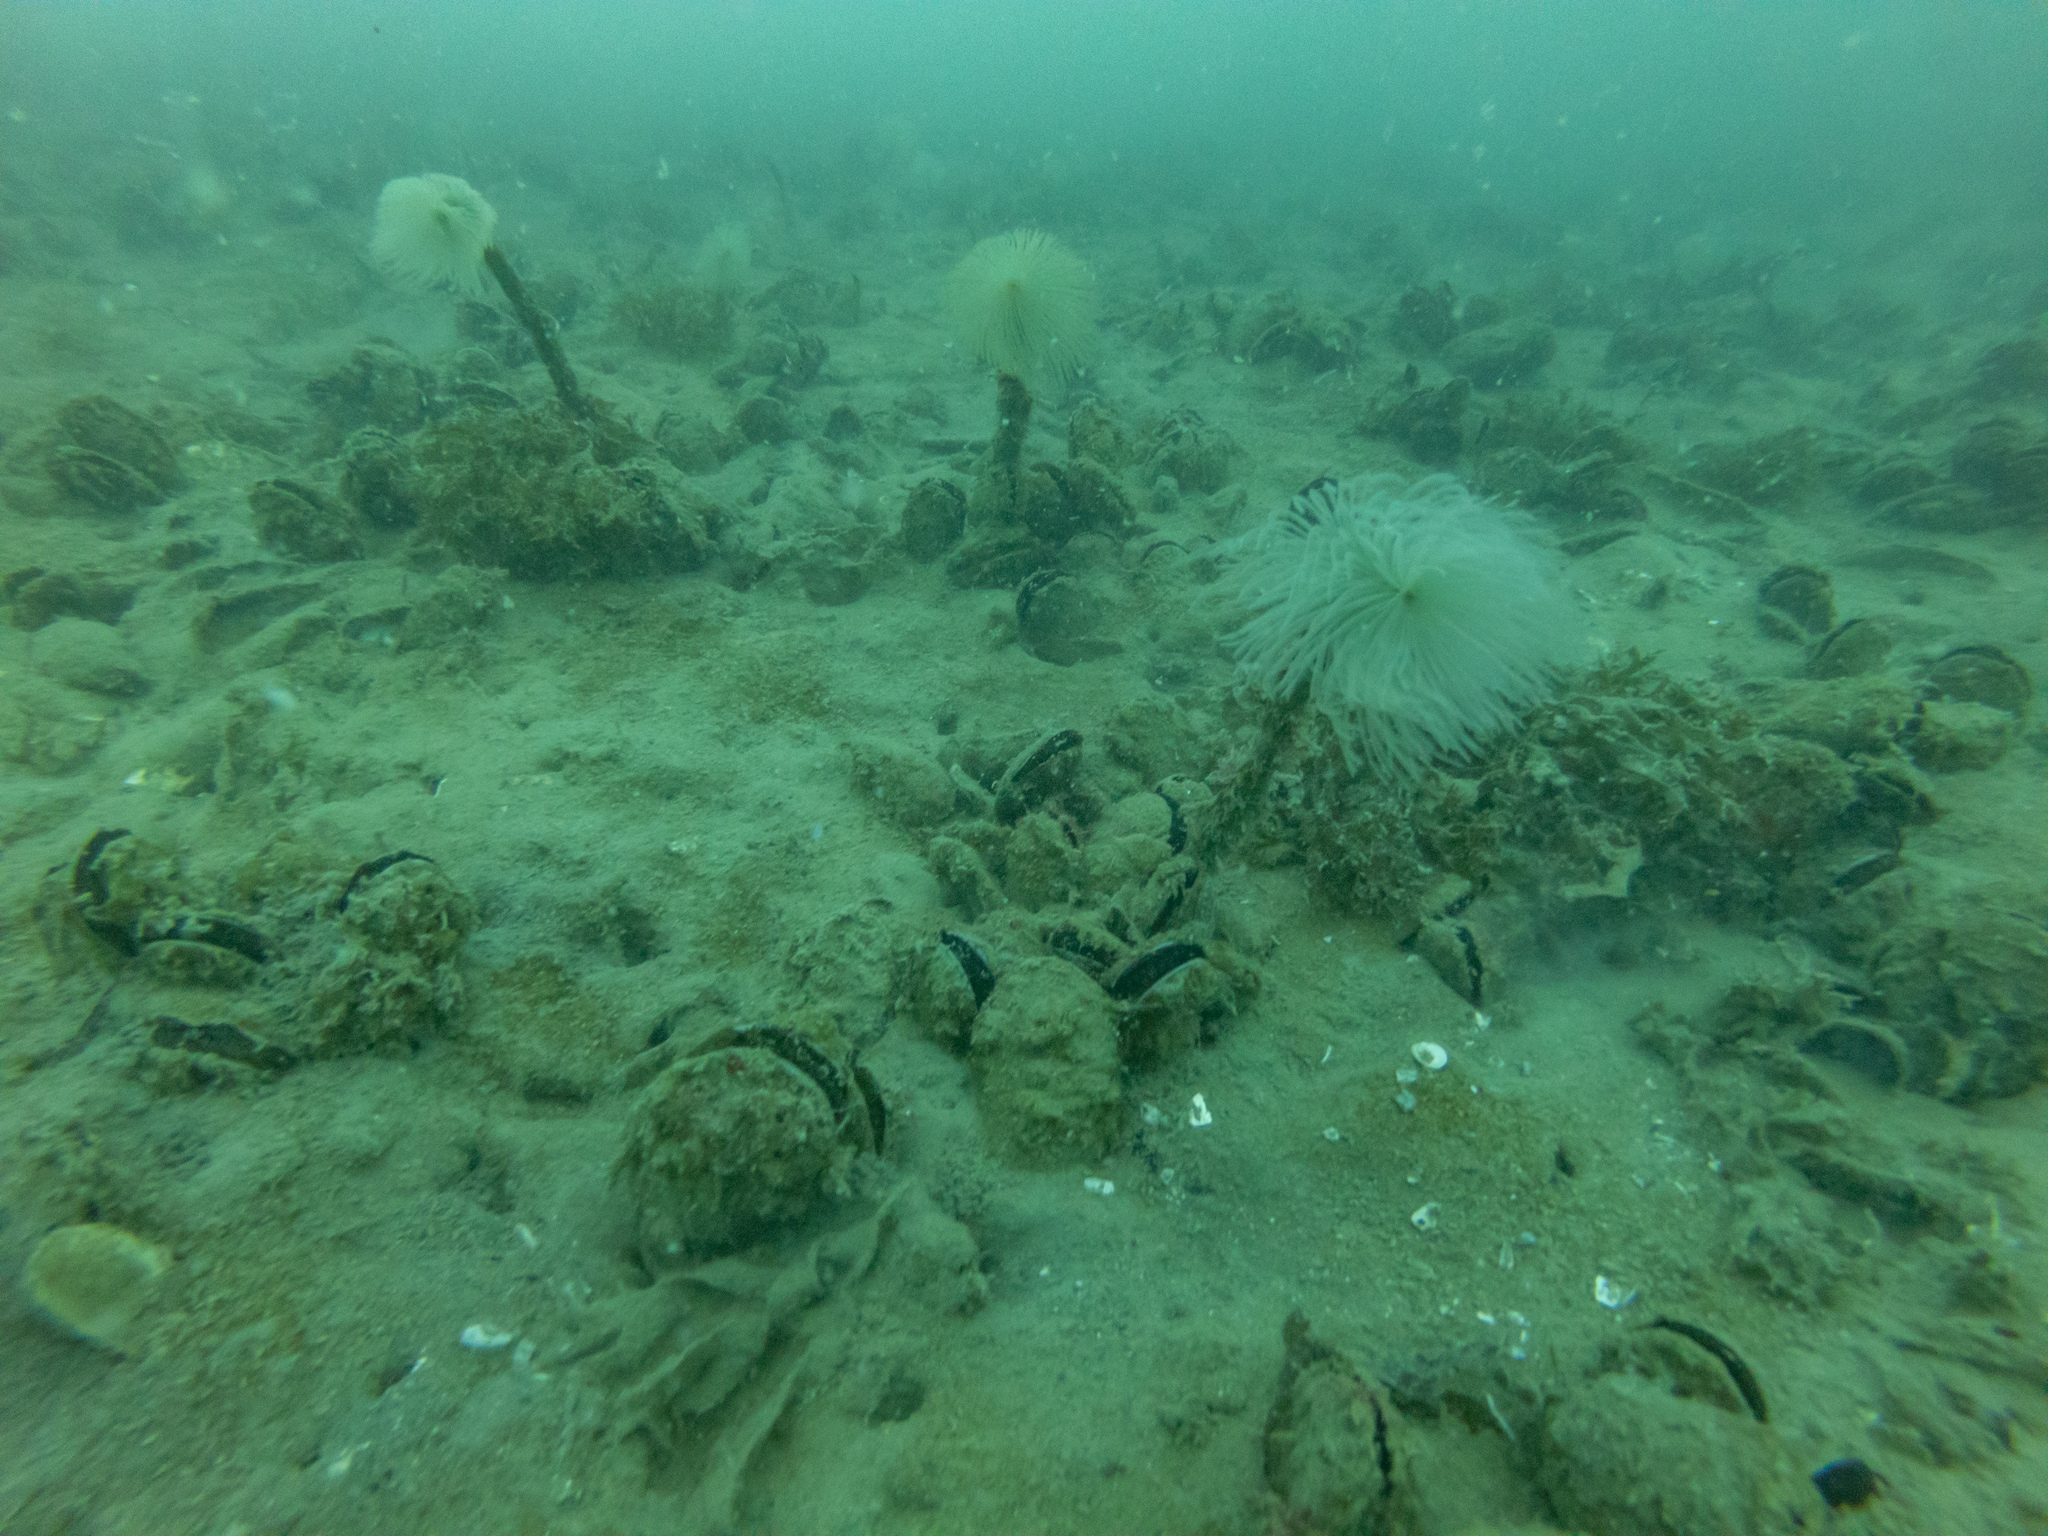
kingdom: Animalia
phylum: Annelida
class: Polychaeta
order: Sabellida
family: Sabellidae
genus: Sabella
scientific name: Sabella spallanzanii
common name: Feather duster worm
